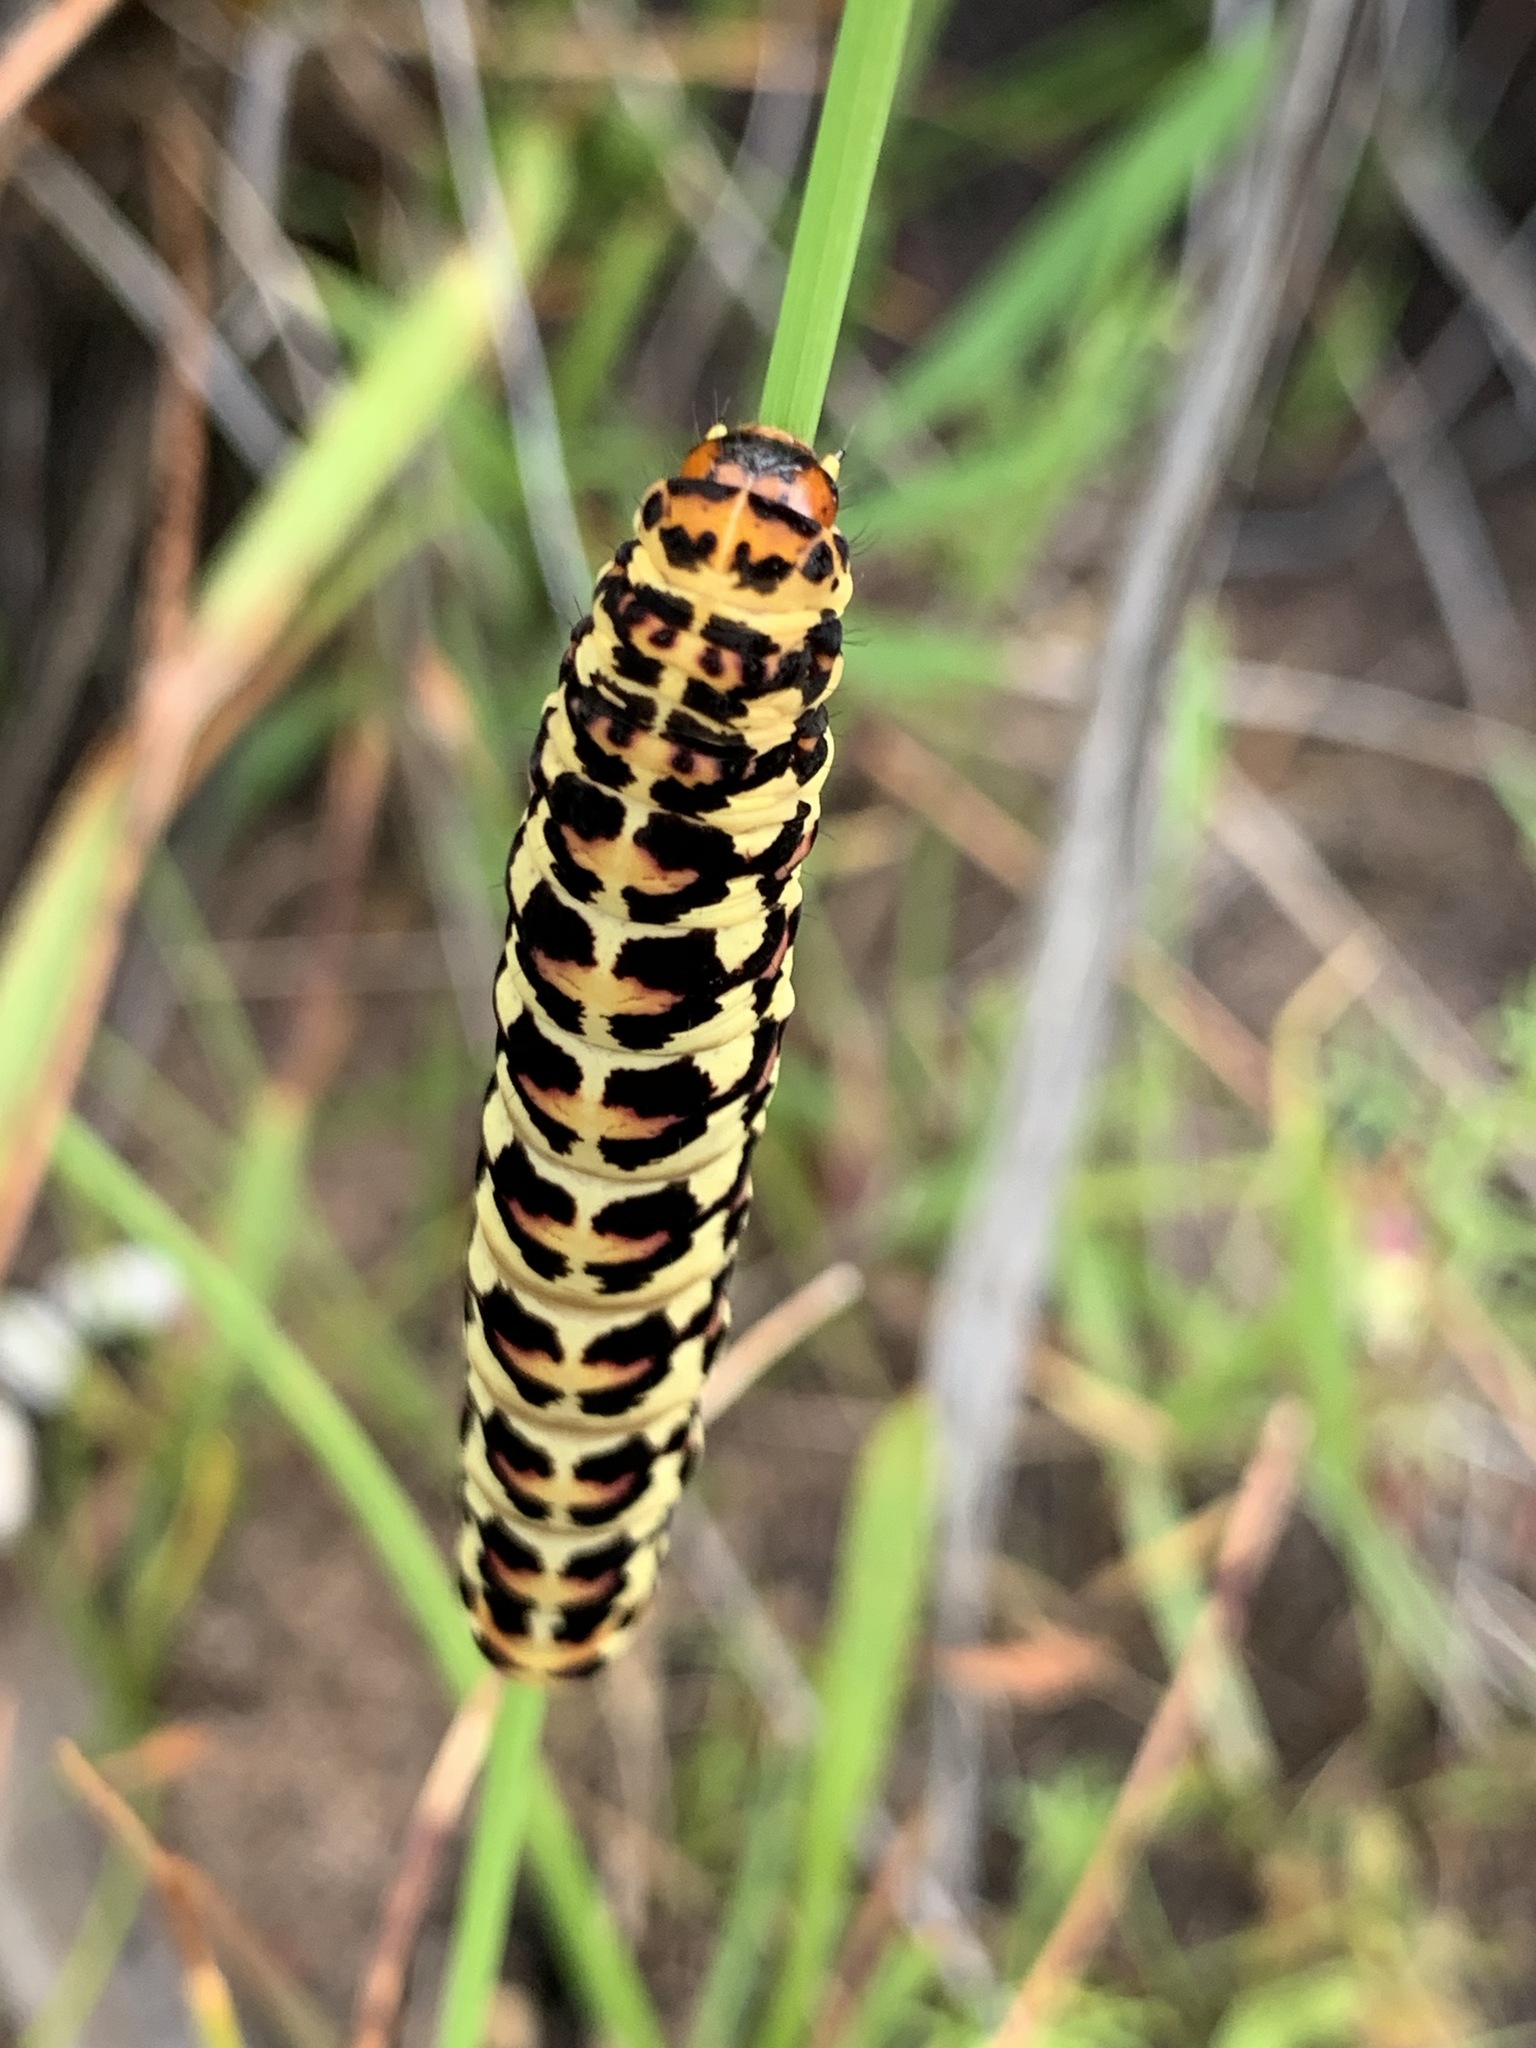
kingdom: Animalia
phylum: Arthropoda
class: Insecta
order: Lepidoptera
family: Noctuidae
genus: Diaphone
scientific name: Diaphone eumela
